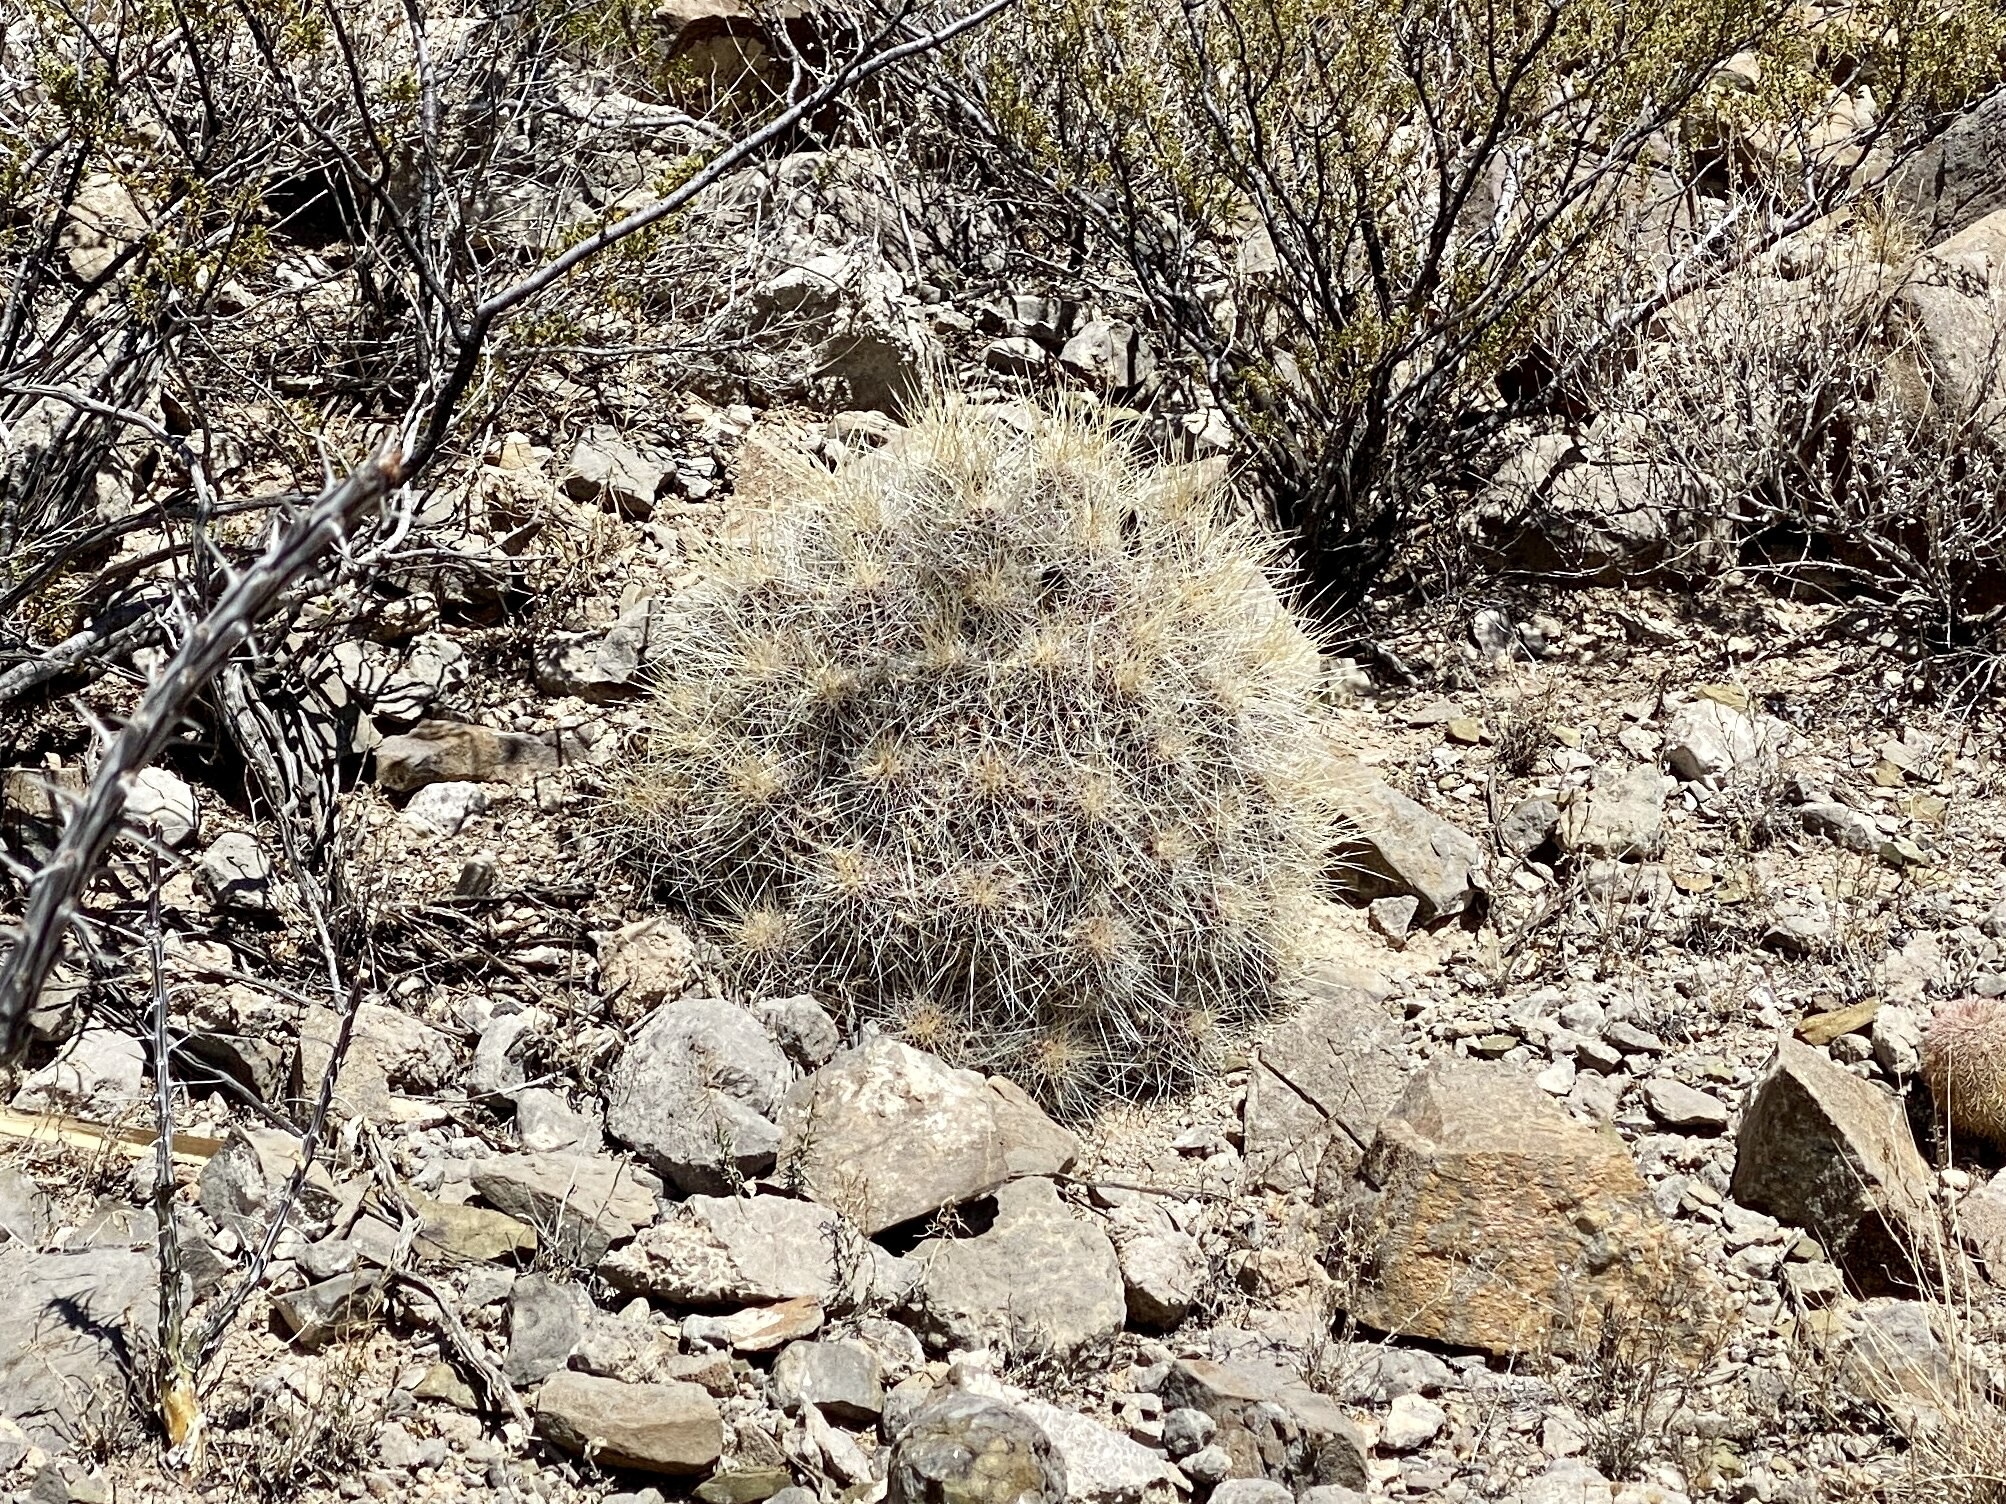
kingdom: Plantae
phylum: Tracheophyta
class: Magnoliopsida
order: Caryophyllales
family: Cactaceae
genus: Echinocereus
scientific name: Echinocereus stramineus
